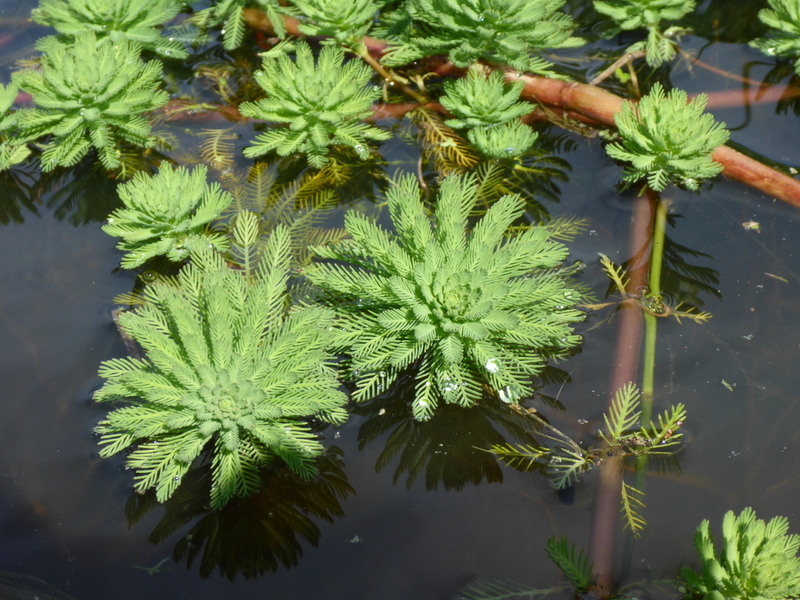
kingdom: Plantae
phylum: Tracheophyta
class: Magnoliopsida
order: Saxifragales
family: Haloragaceae
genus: Myriophyllum
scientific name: Myriophyllum aquaticum
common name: Parrot's feather
